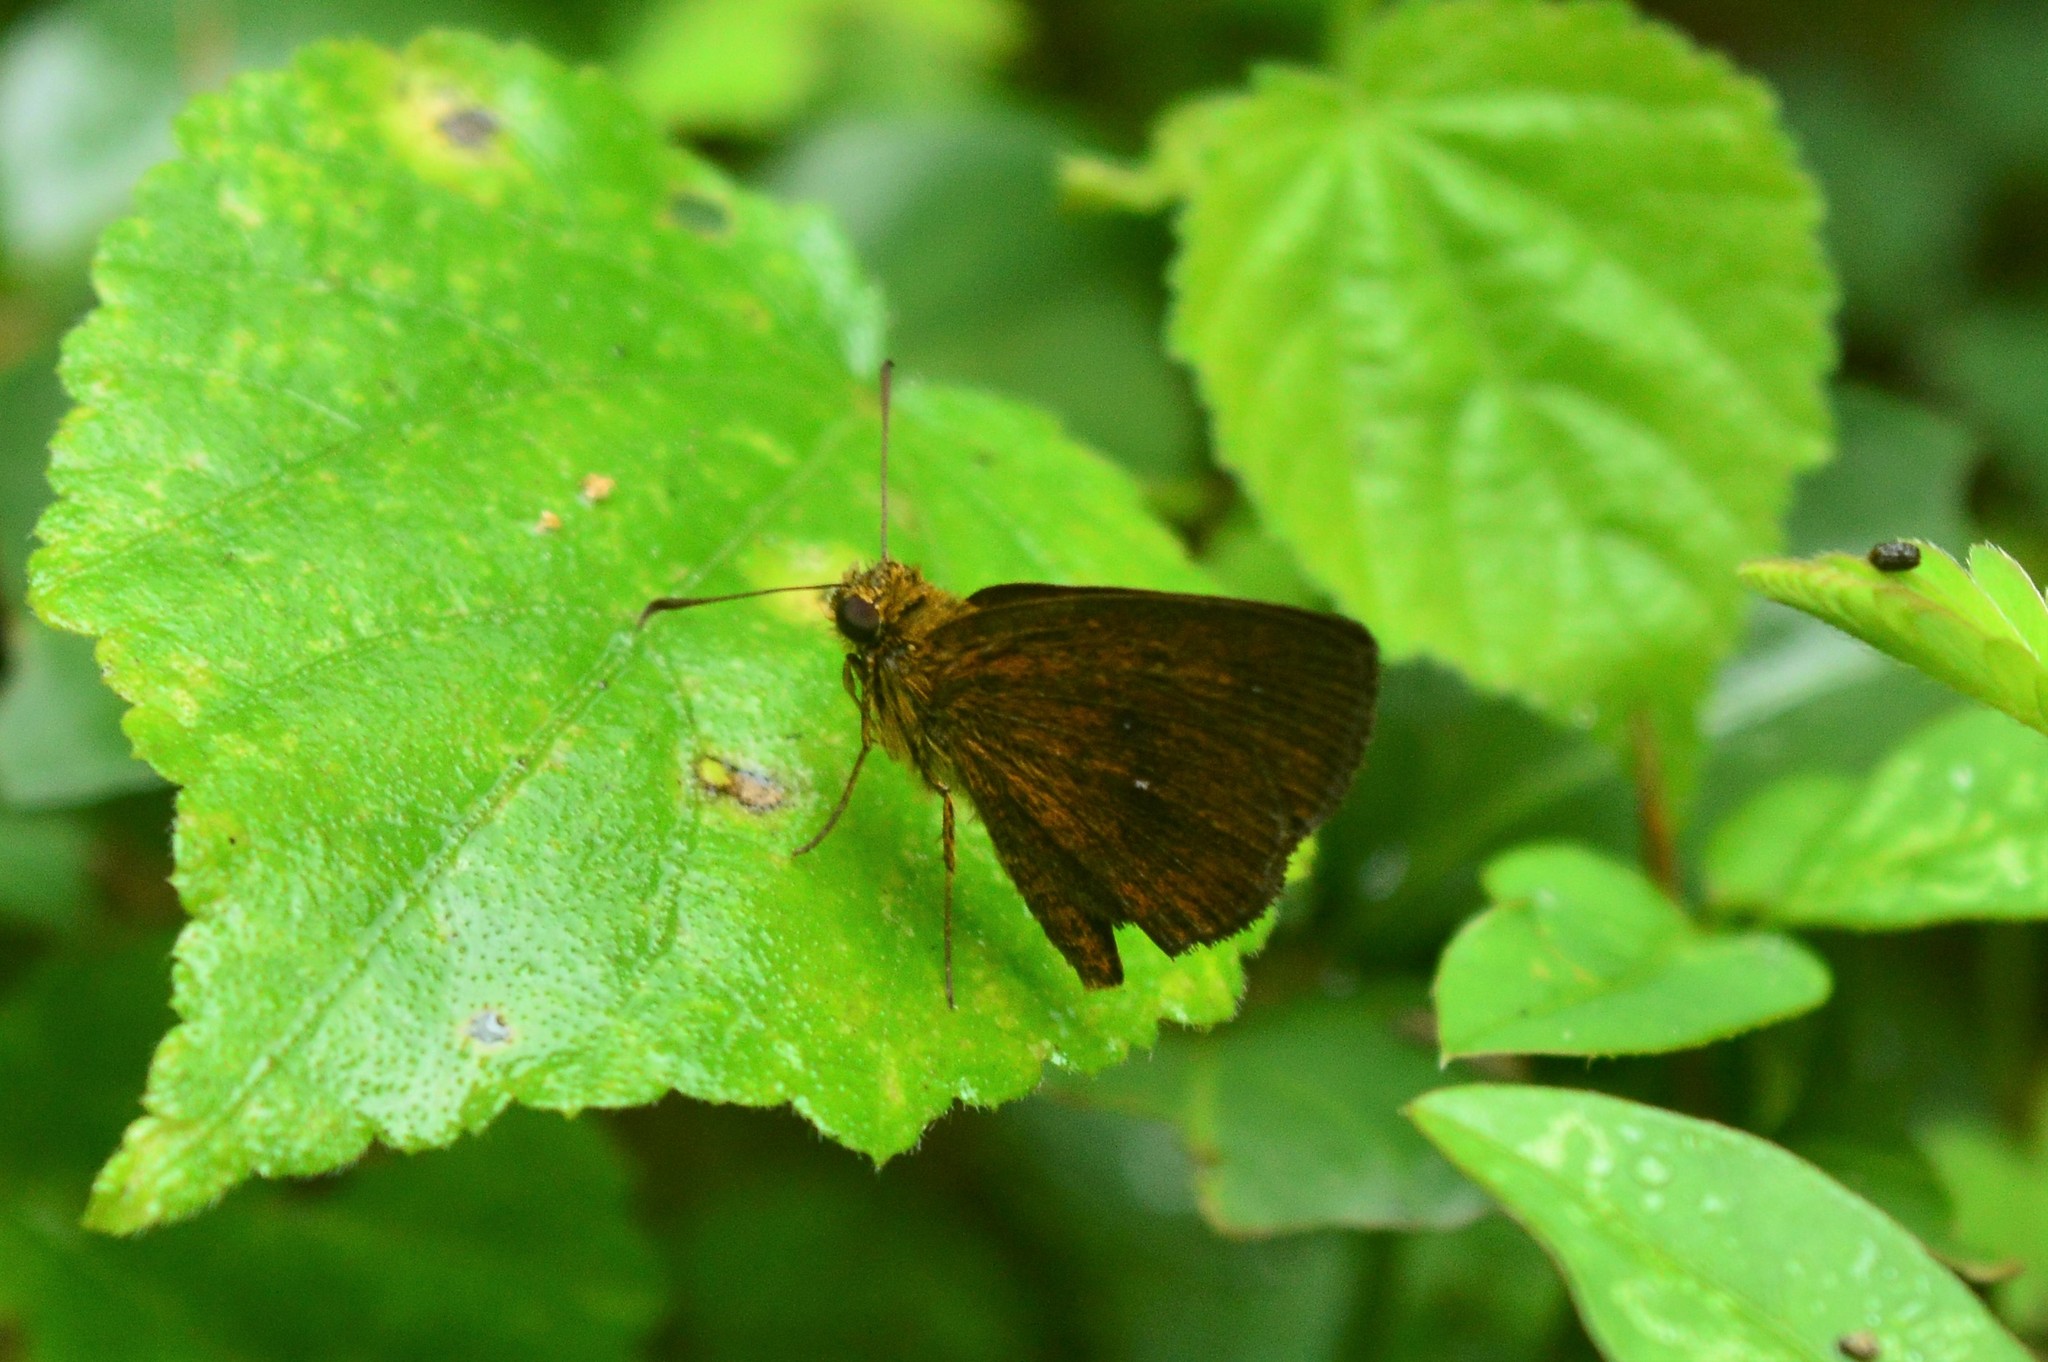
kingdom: Animalia
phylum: Arthropoda
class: Insecta
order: Lepidoptera
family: Hesperiidae
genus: Iambrix
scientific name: Iambrix salsala
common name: Chestnut bob
